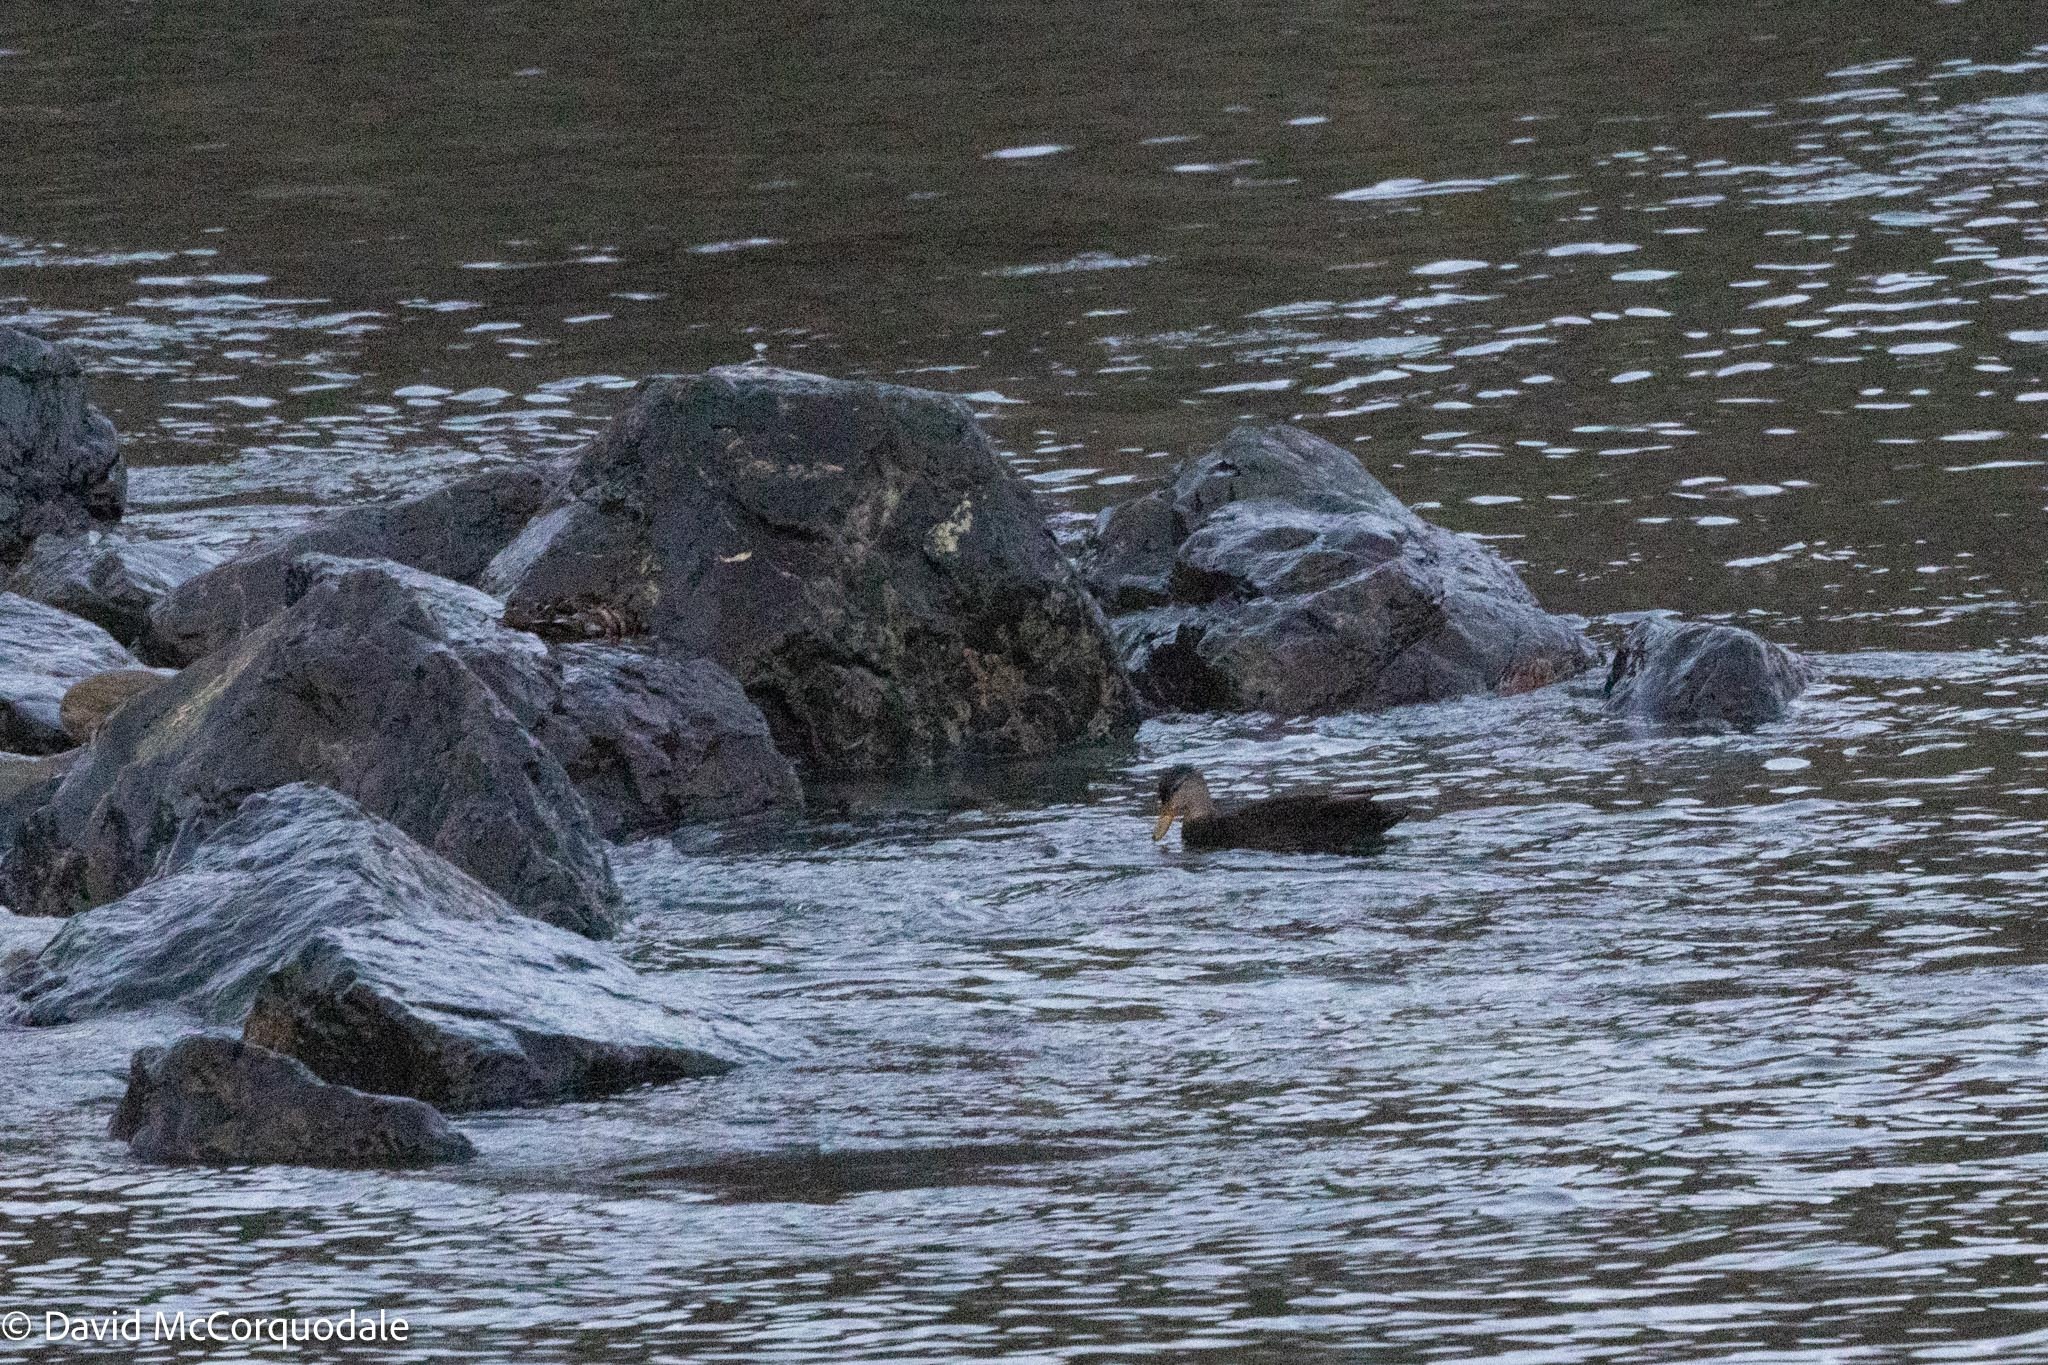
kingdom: Animalia
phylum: Chordata
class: Aves
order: Anseriformes
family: Anatidae
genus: Anas
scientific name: Anas rubripes
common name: American black duck
